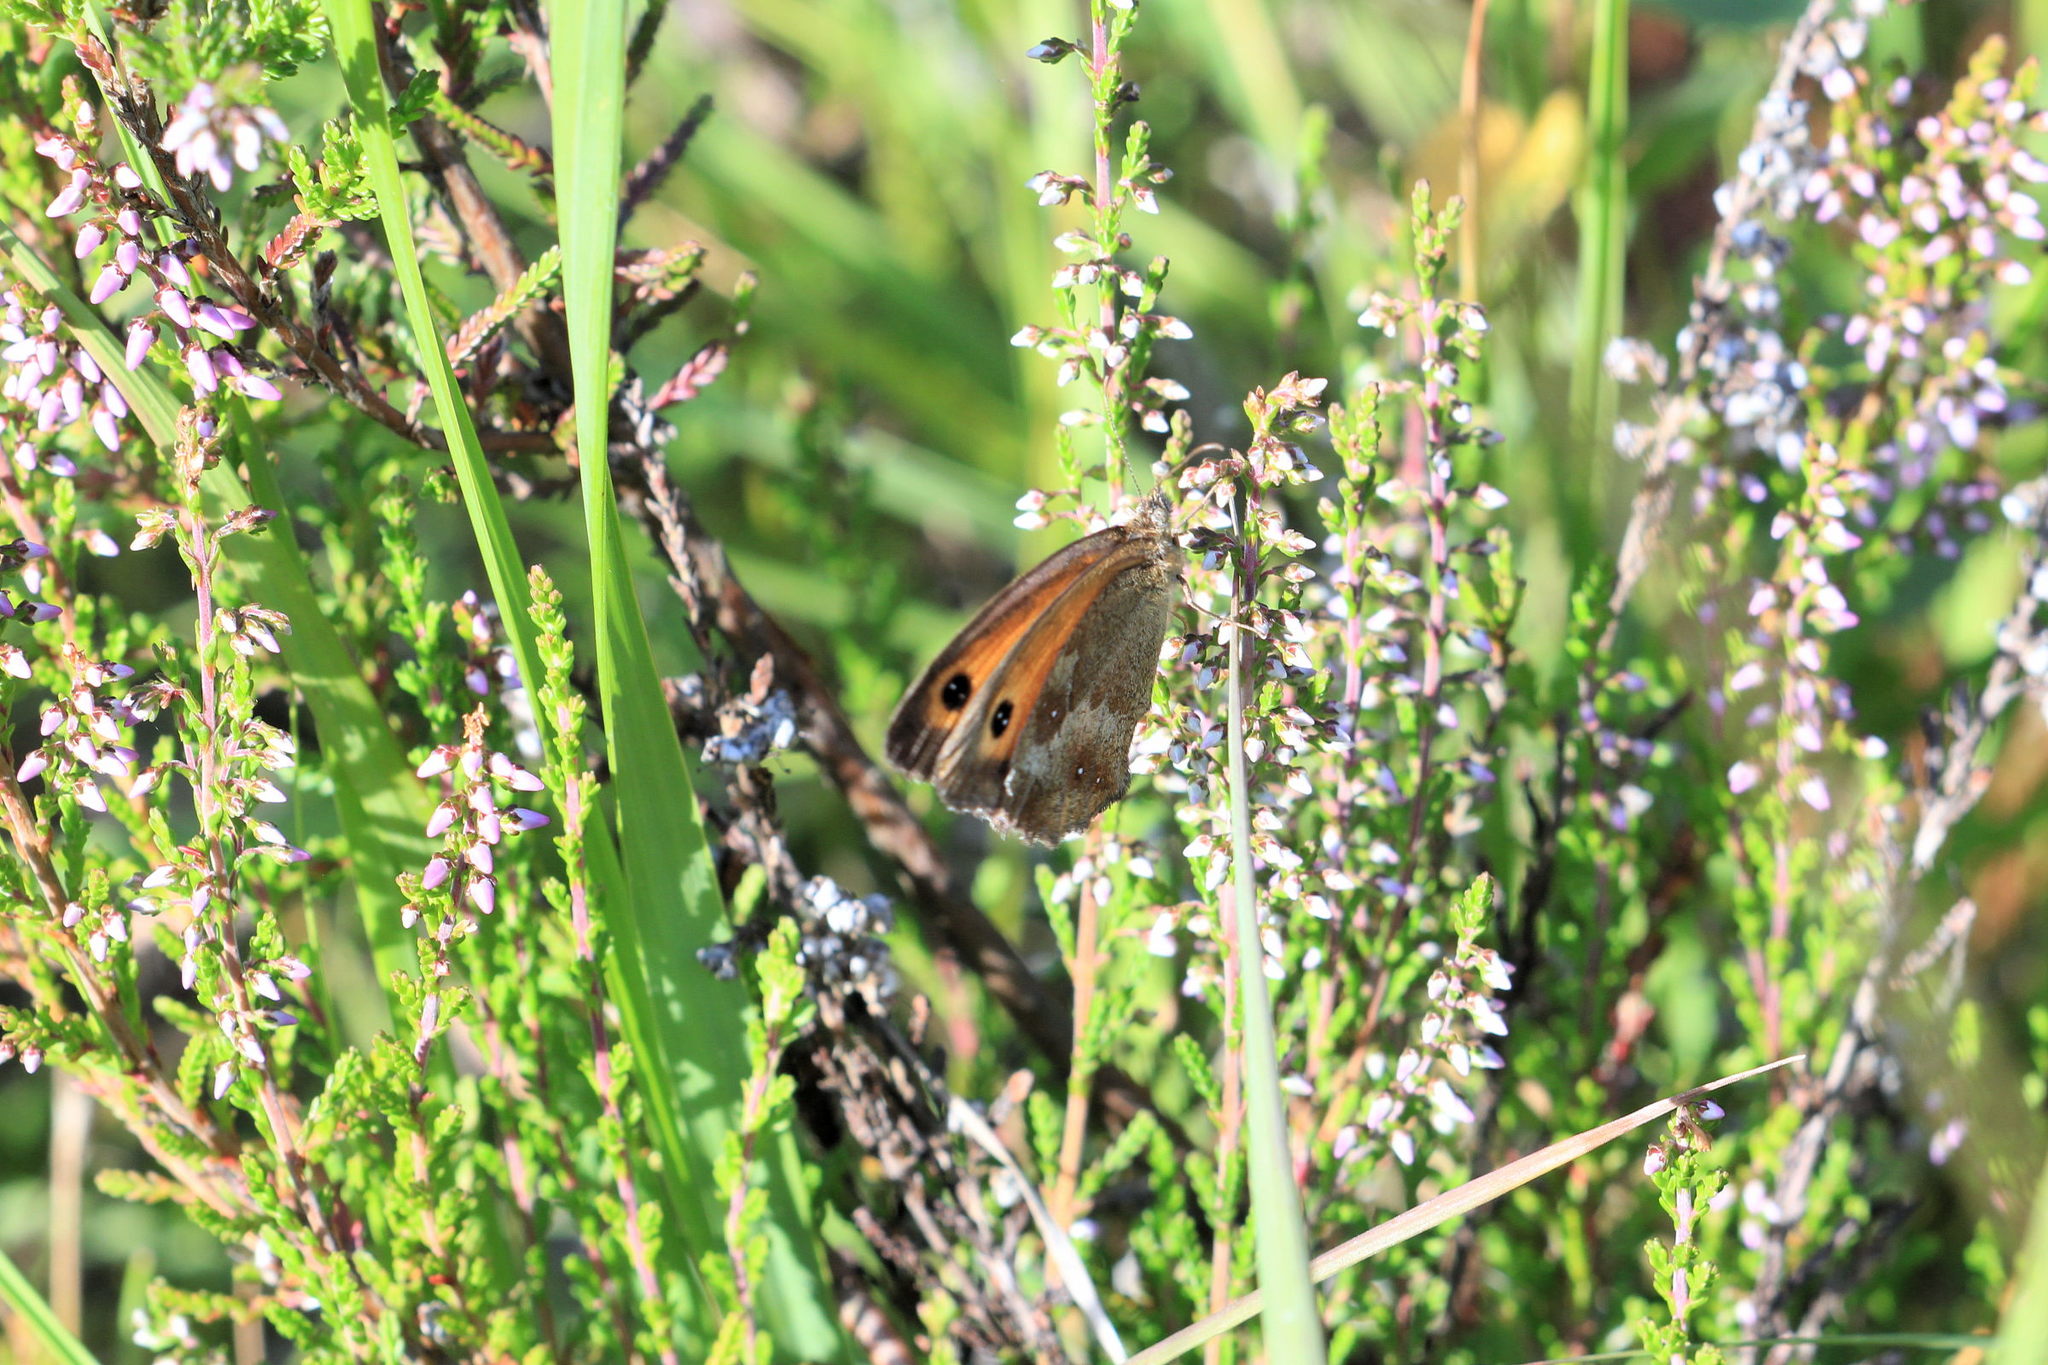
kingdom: Animalia
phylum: Arthropoda
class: Insecta
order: Lepidoptera
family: Nymphalidae
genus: Pyronia
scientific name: Pyronia tithonus
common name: Gatekeeper
